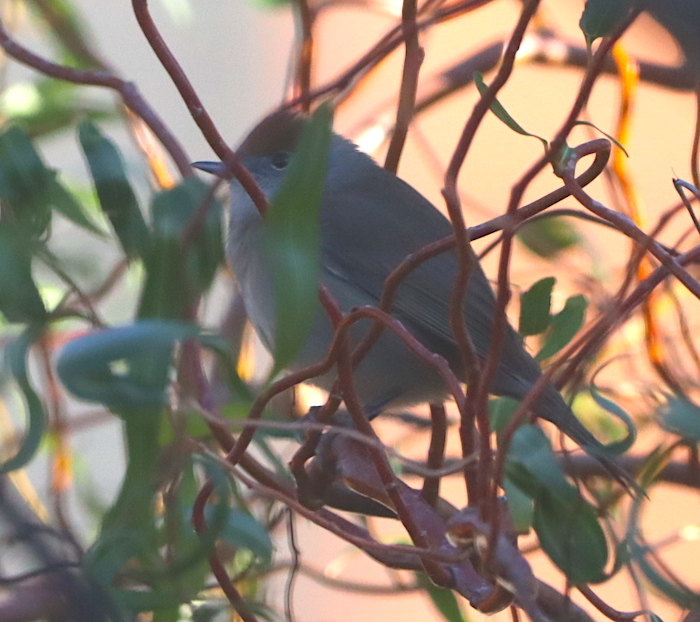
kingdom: Animalia
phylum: Chordata
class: Aves
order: Passeriformes
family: Sylviidae
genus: Sylvia
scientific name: Sylvia atricapilla
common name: Eurasian blackcap
